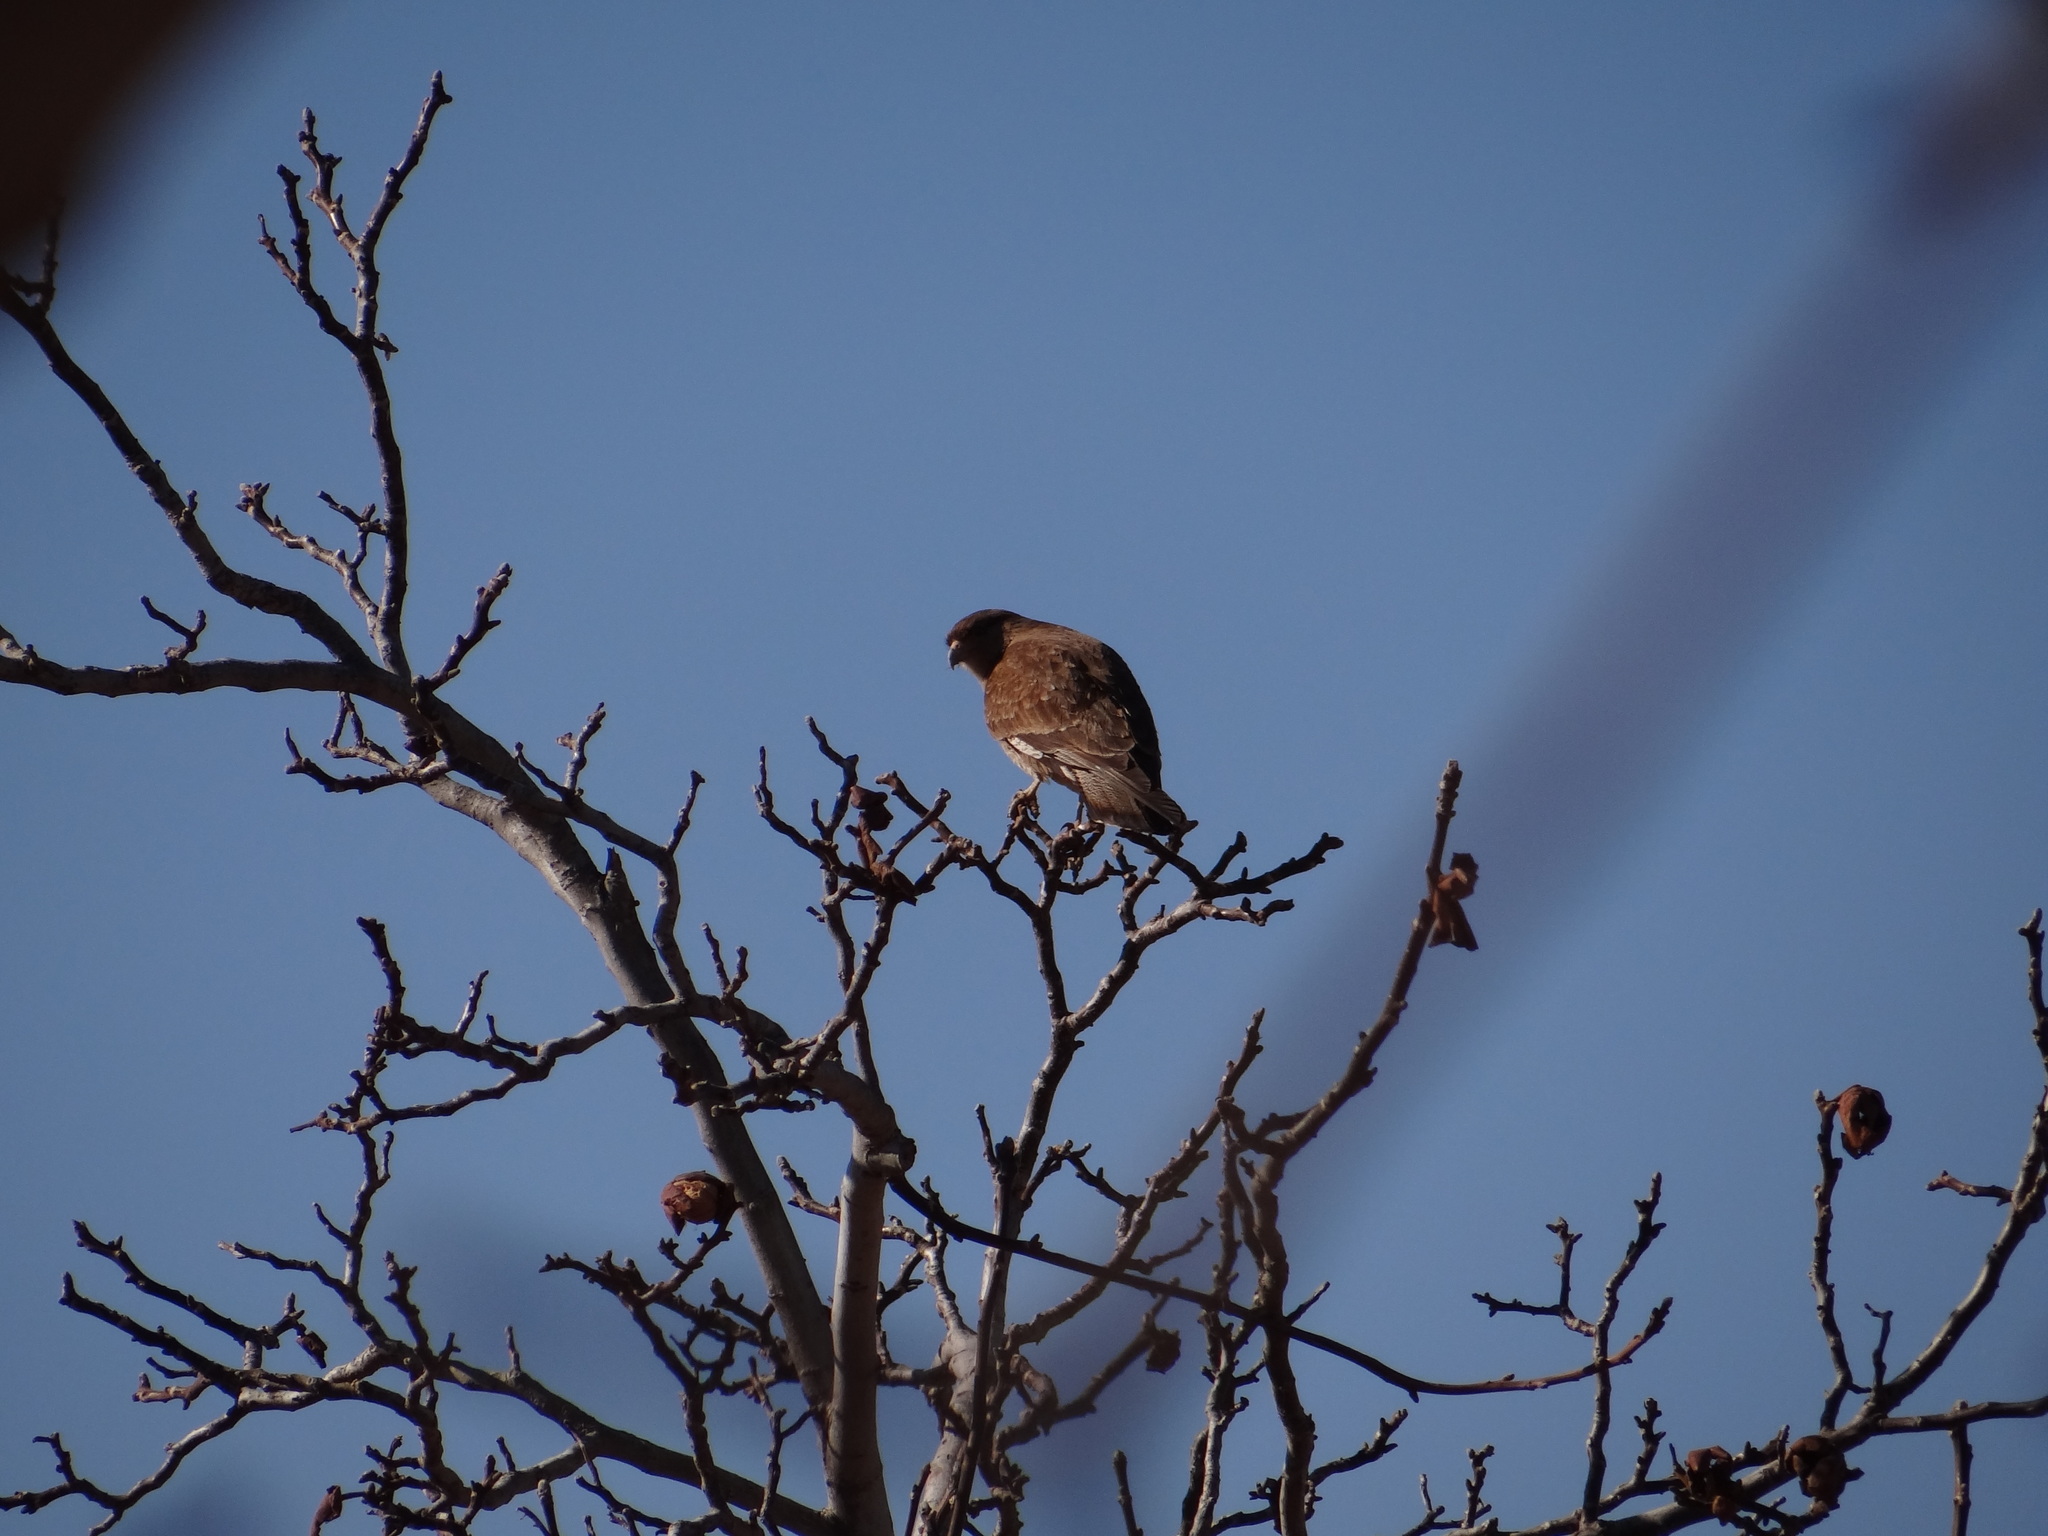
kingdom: Animalia
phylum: Chordata
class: Aves
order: Falconiformes
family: Falconidae
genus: Daptrius
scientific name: Daptrius
